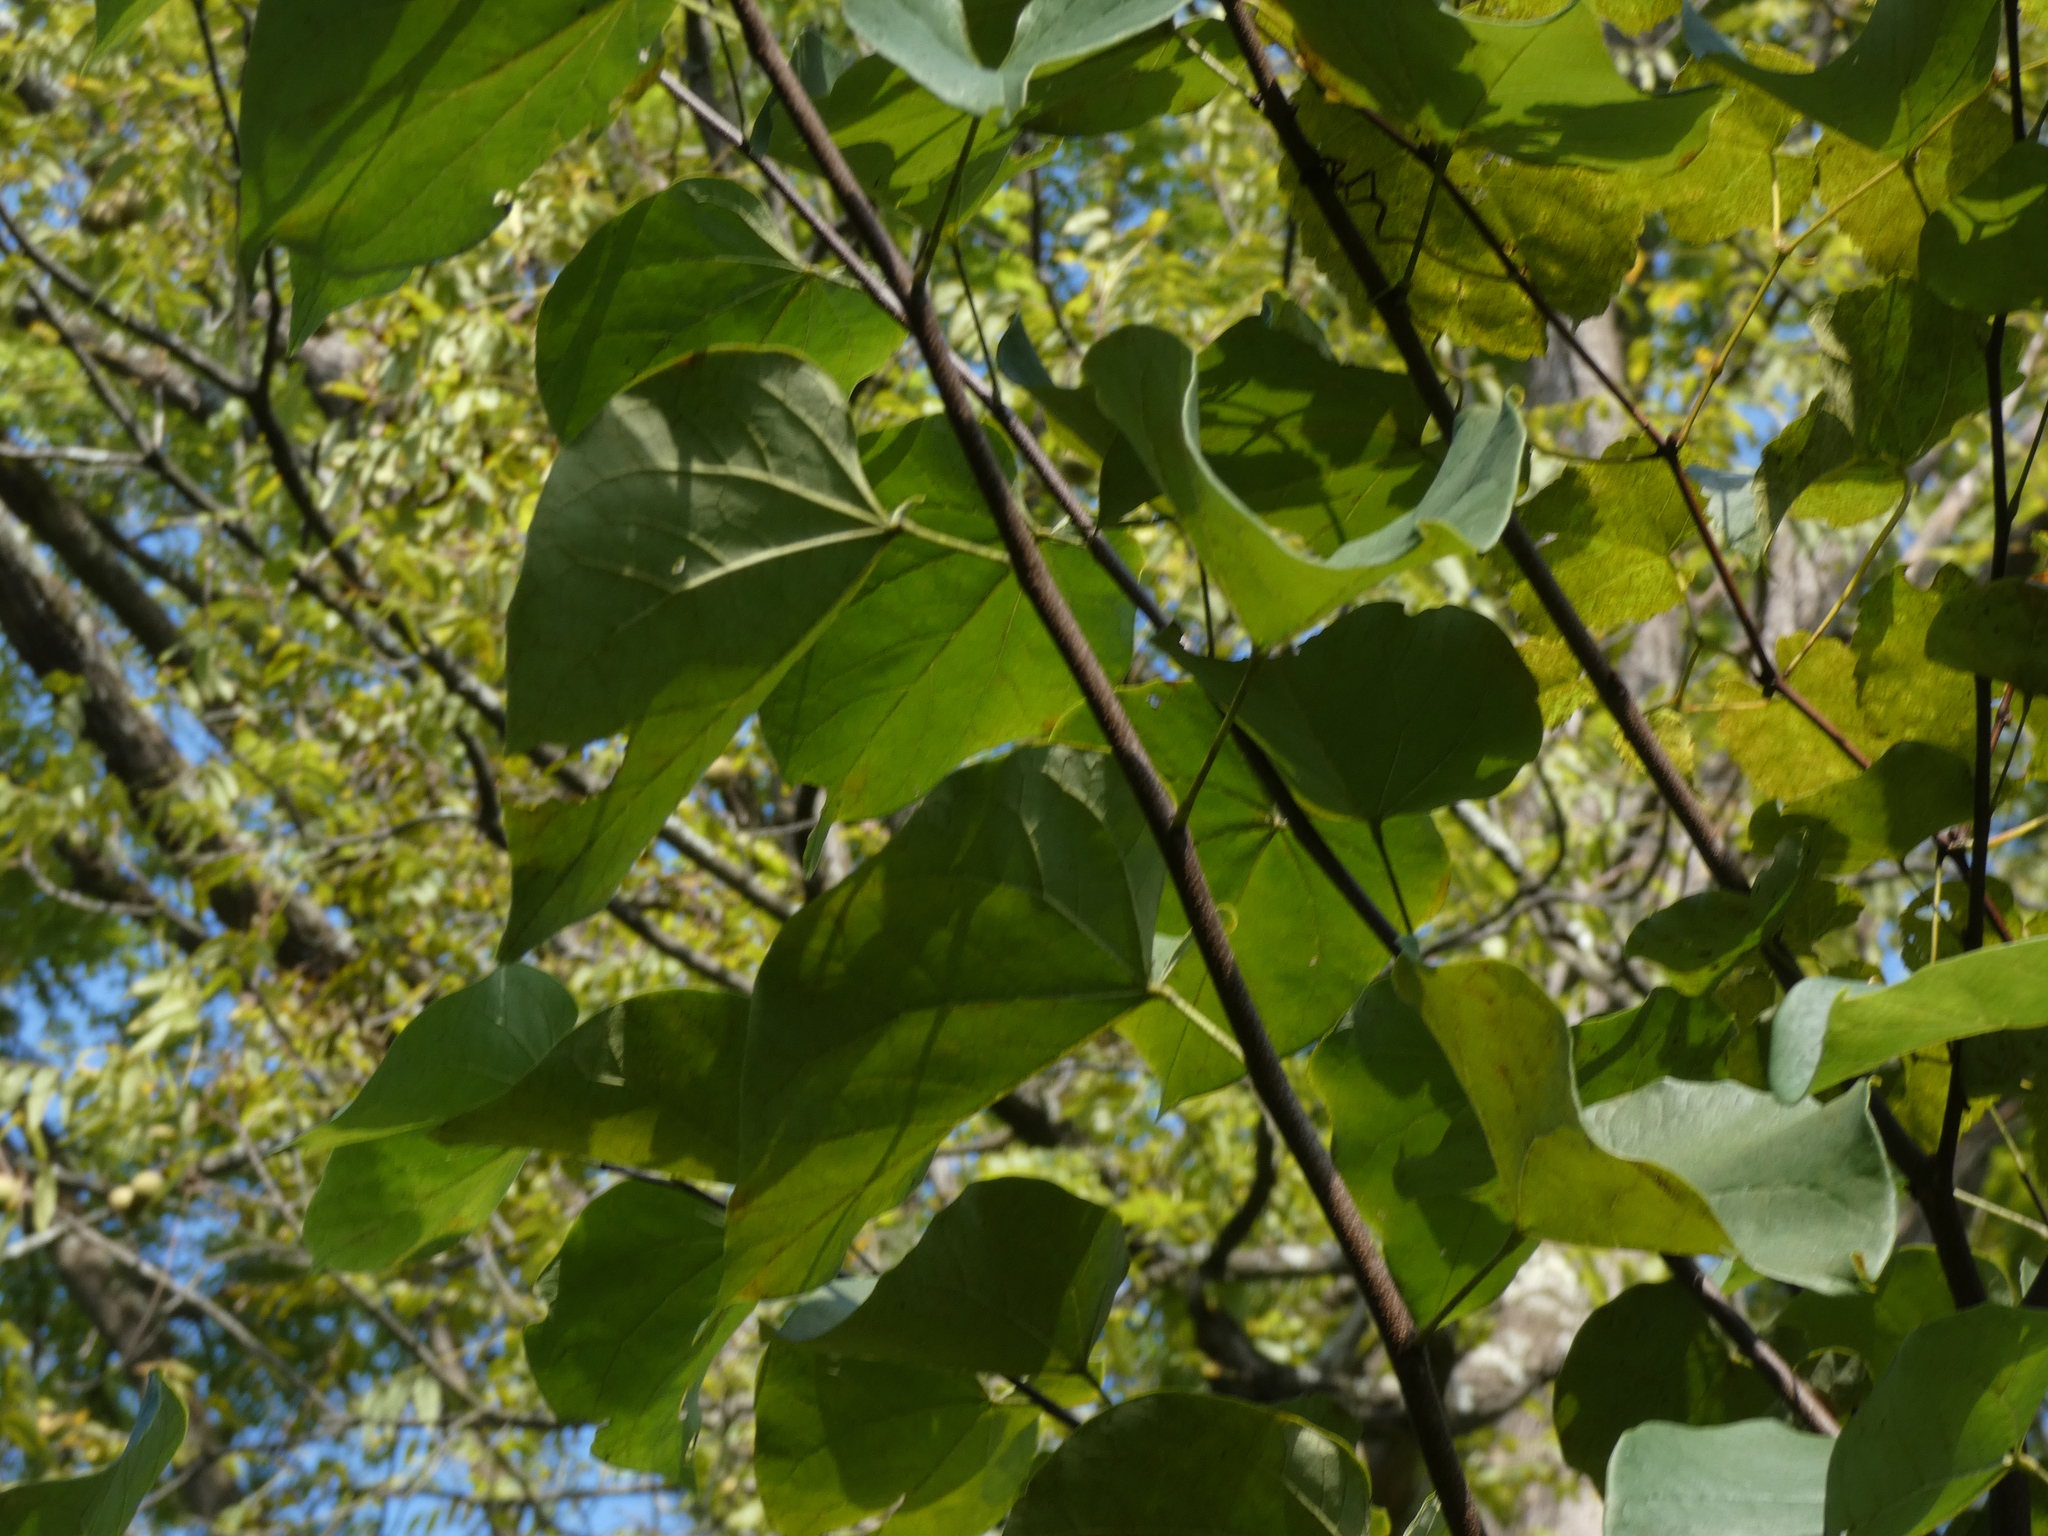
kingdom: Plantae
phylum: Tracheophyta
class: Magnoliopsida
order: Fabales
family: Fabaceae
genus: Cercis
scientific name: Cercis canadensis
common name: Eastern redbud
